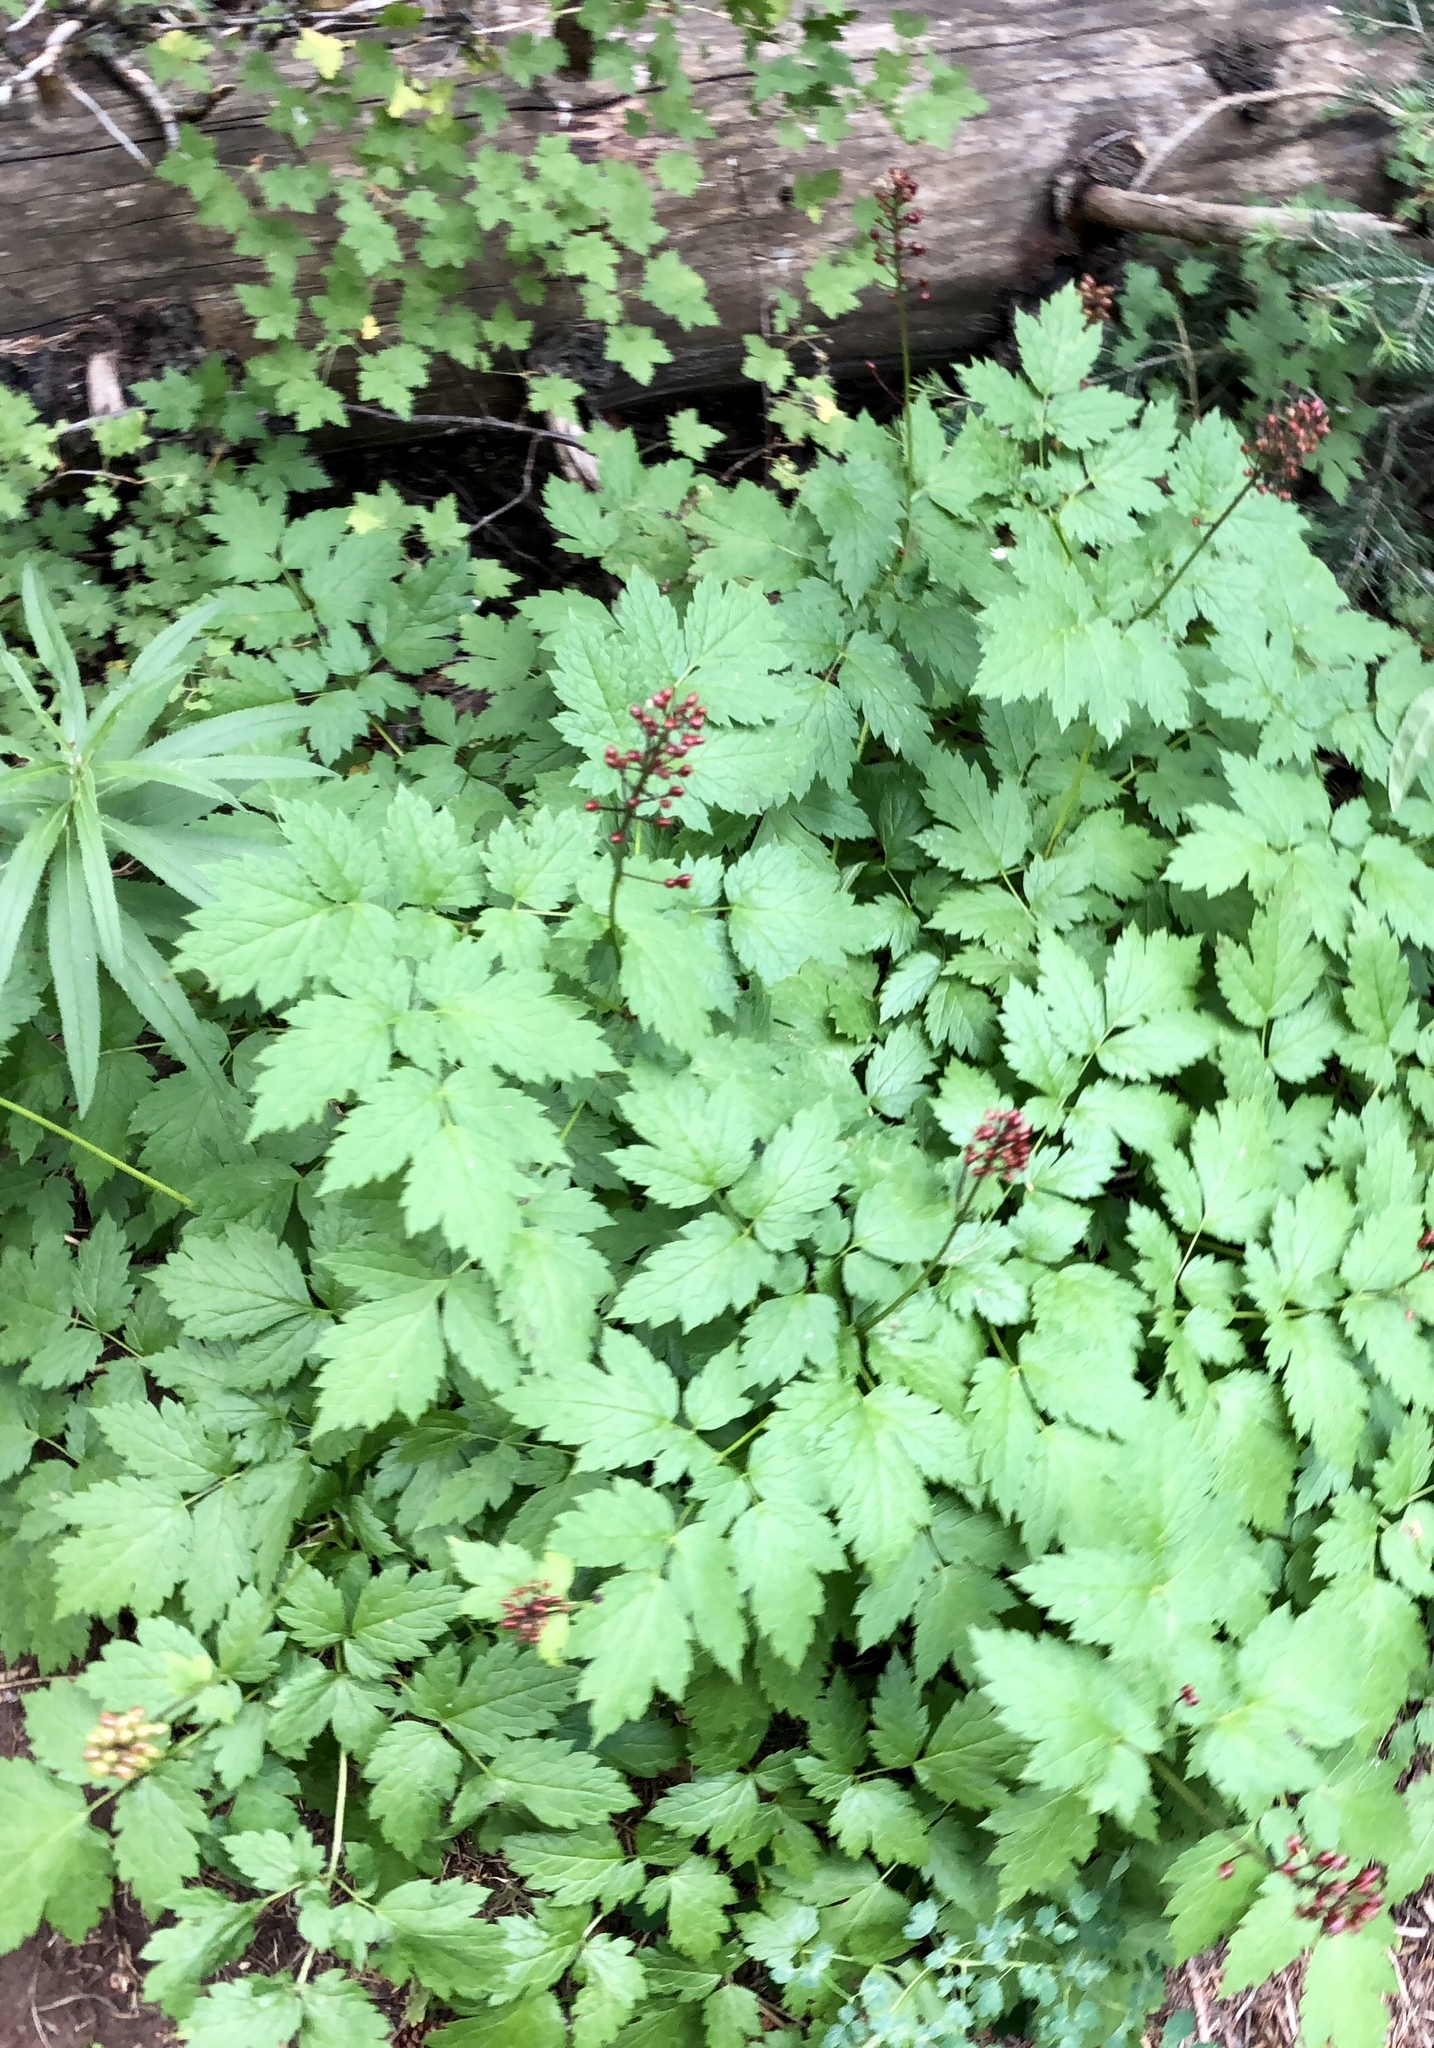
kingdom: Plantae
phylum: Tracheophyta
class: Magnoliopsida
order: Ranunculales
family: Ranunculaceae
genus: Actaea
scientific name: Actaea rubra
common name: Red baneberry
